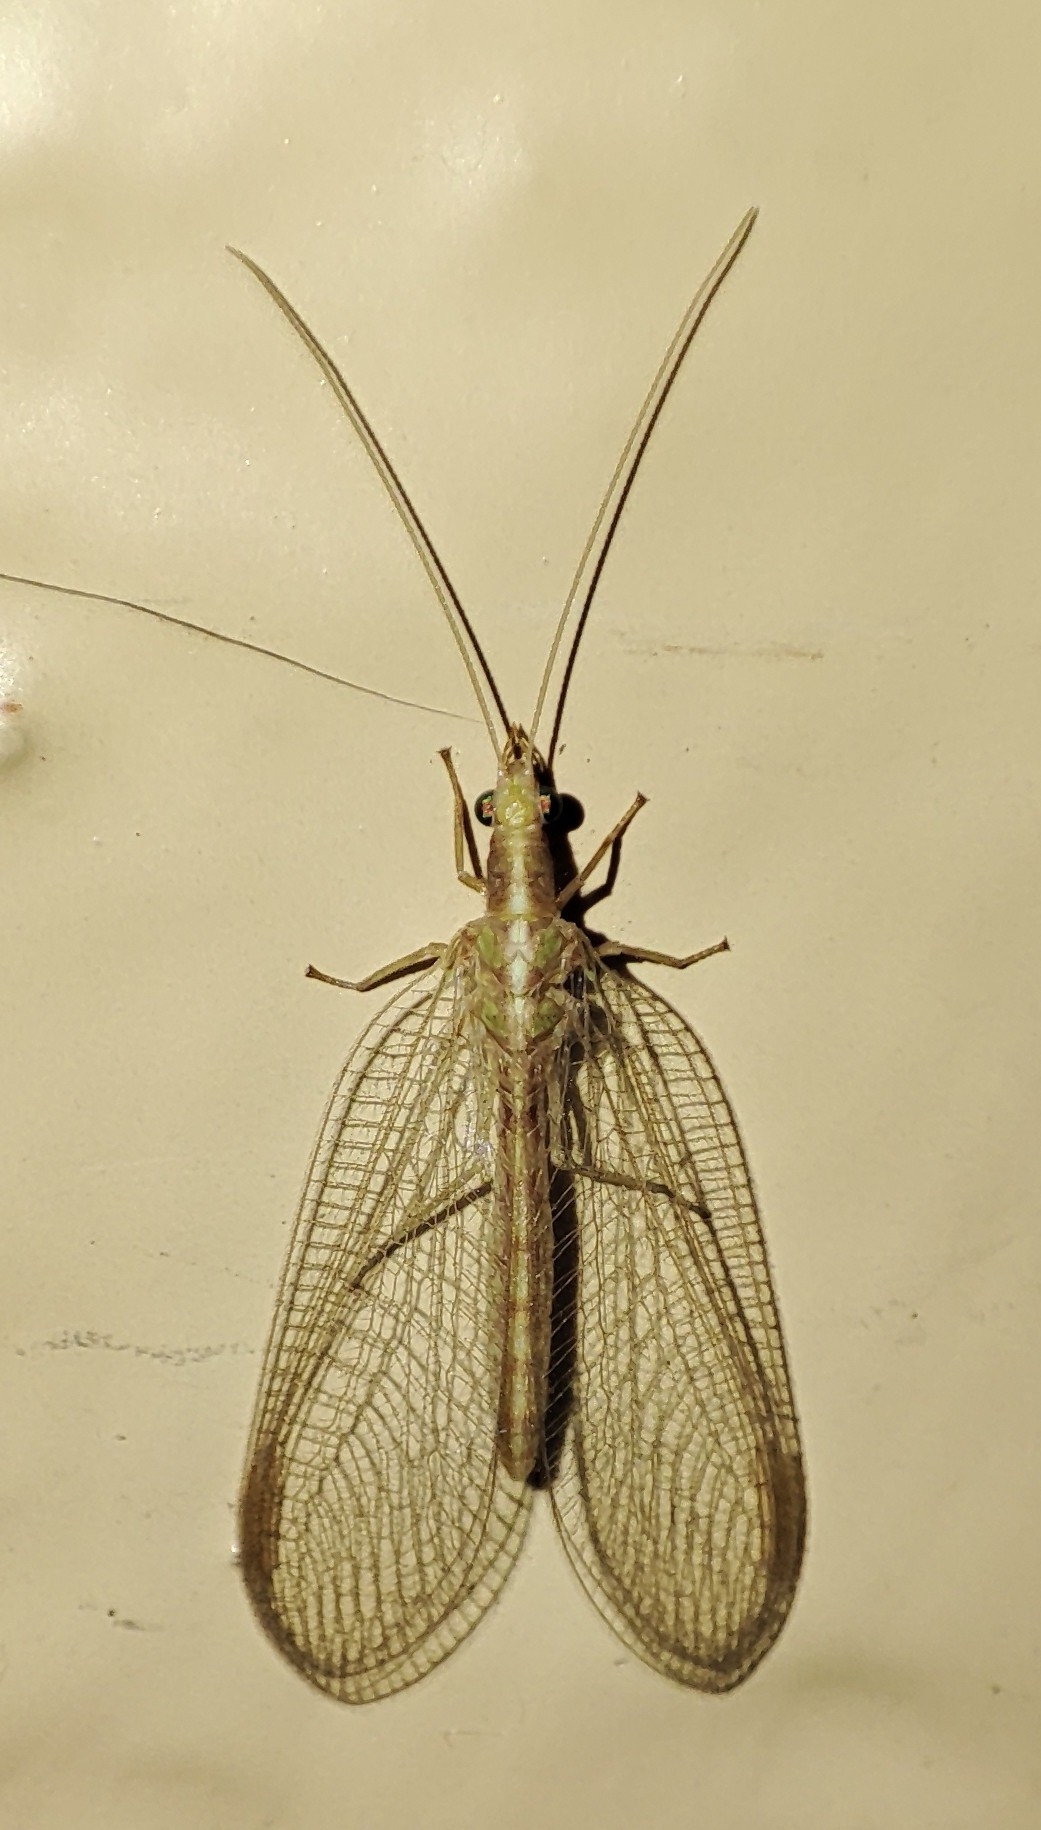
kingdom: Animalia
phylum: Arthropoda
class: Insecta
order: Neuroptera
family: Chrysopidae
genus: Chrysoperla
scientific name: Chrysoperla carnea
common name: Common green lacewing
